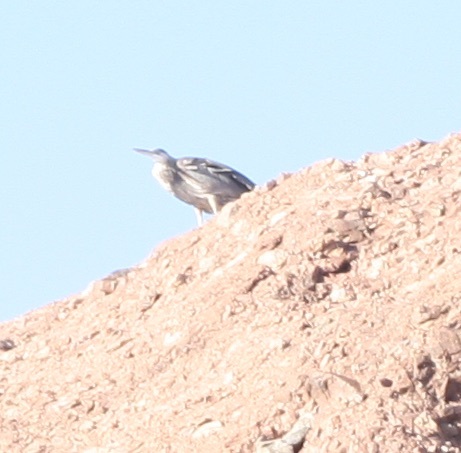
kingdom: Animalia
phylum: Chordata
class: Aves
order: Pelecaniformes
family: Ardeidae
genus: Ardea
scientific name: Ardea herodias
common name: Great blue heron
